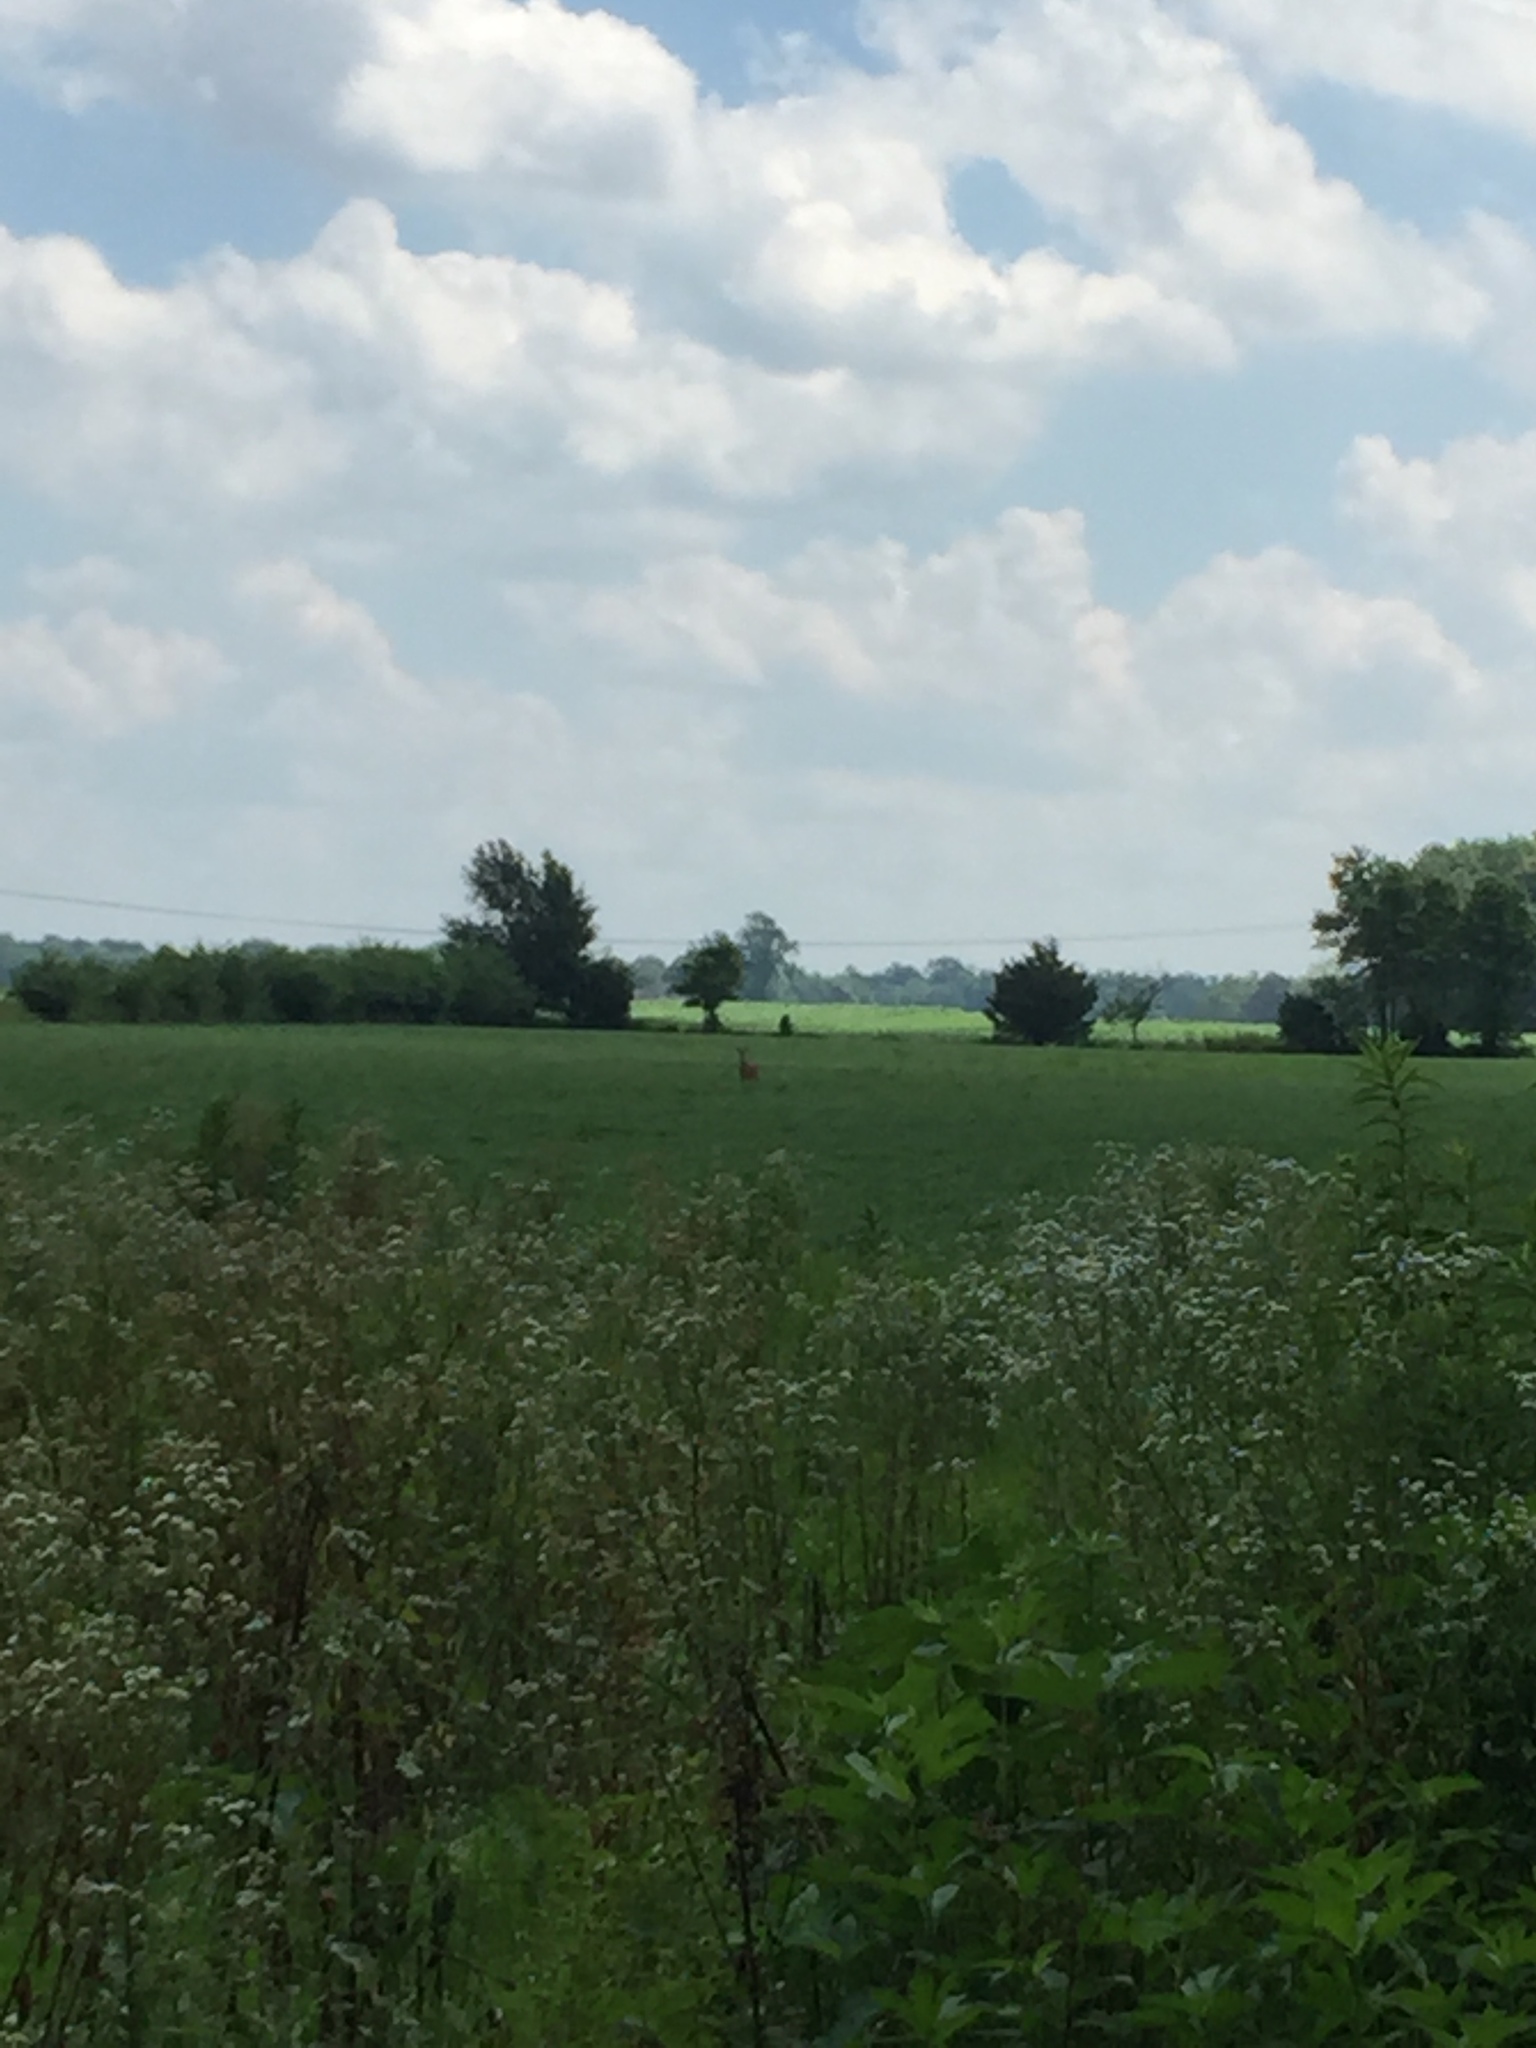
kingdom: Animalia
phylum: Chordata
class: Mammalia
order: Artiodactyla
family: Cervidae
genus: Odocoileus
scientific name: Odocoileus virginianus
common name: White-tailed deer
